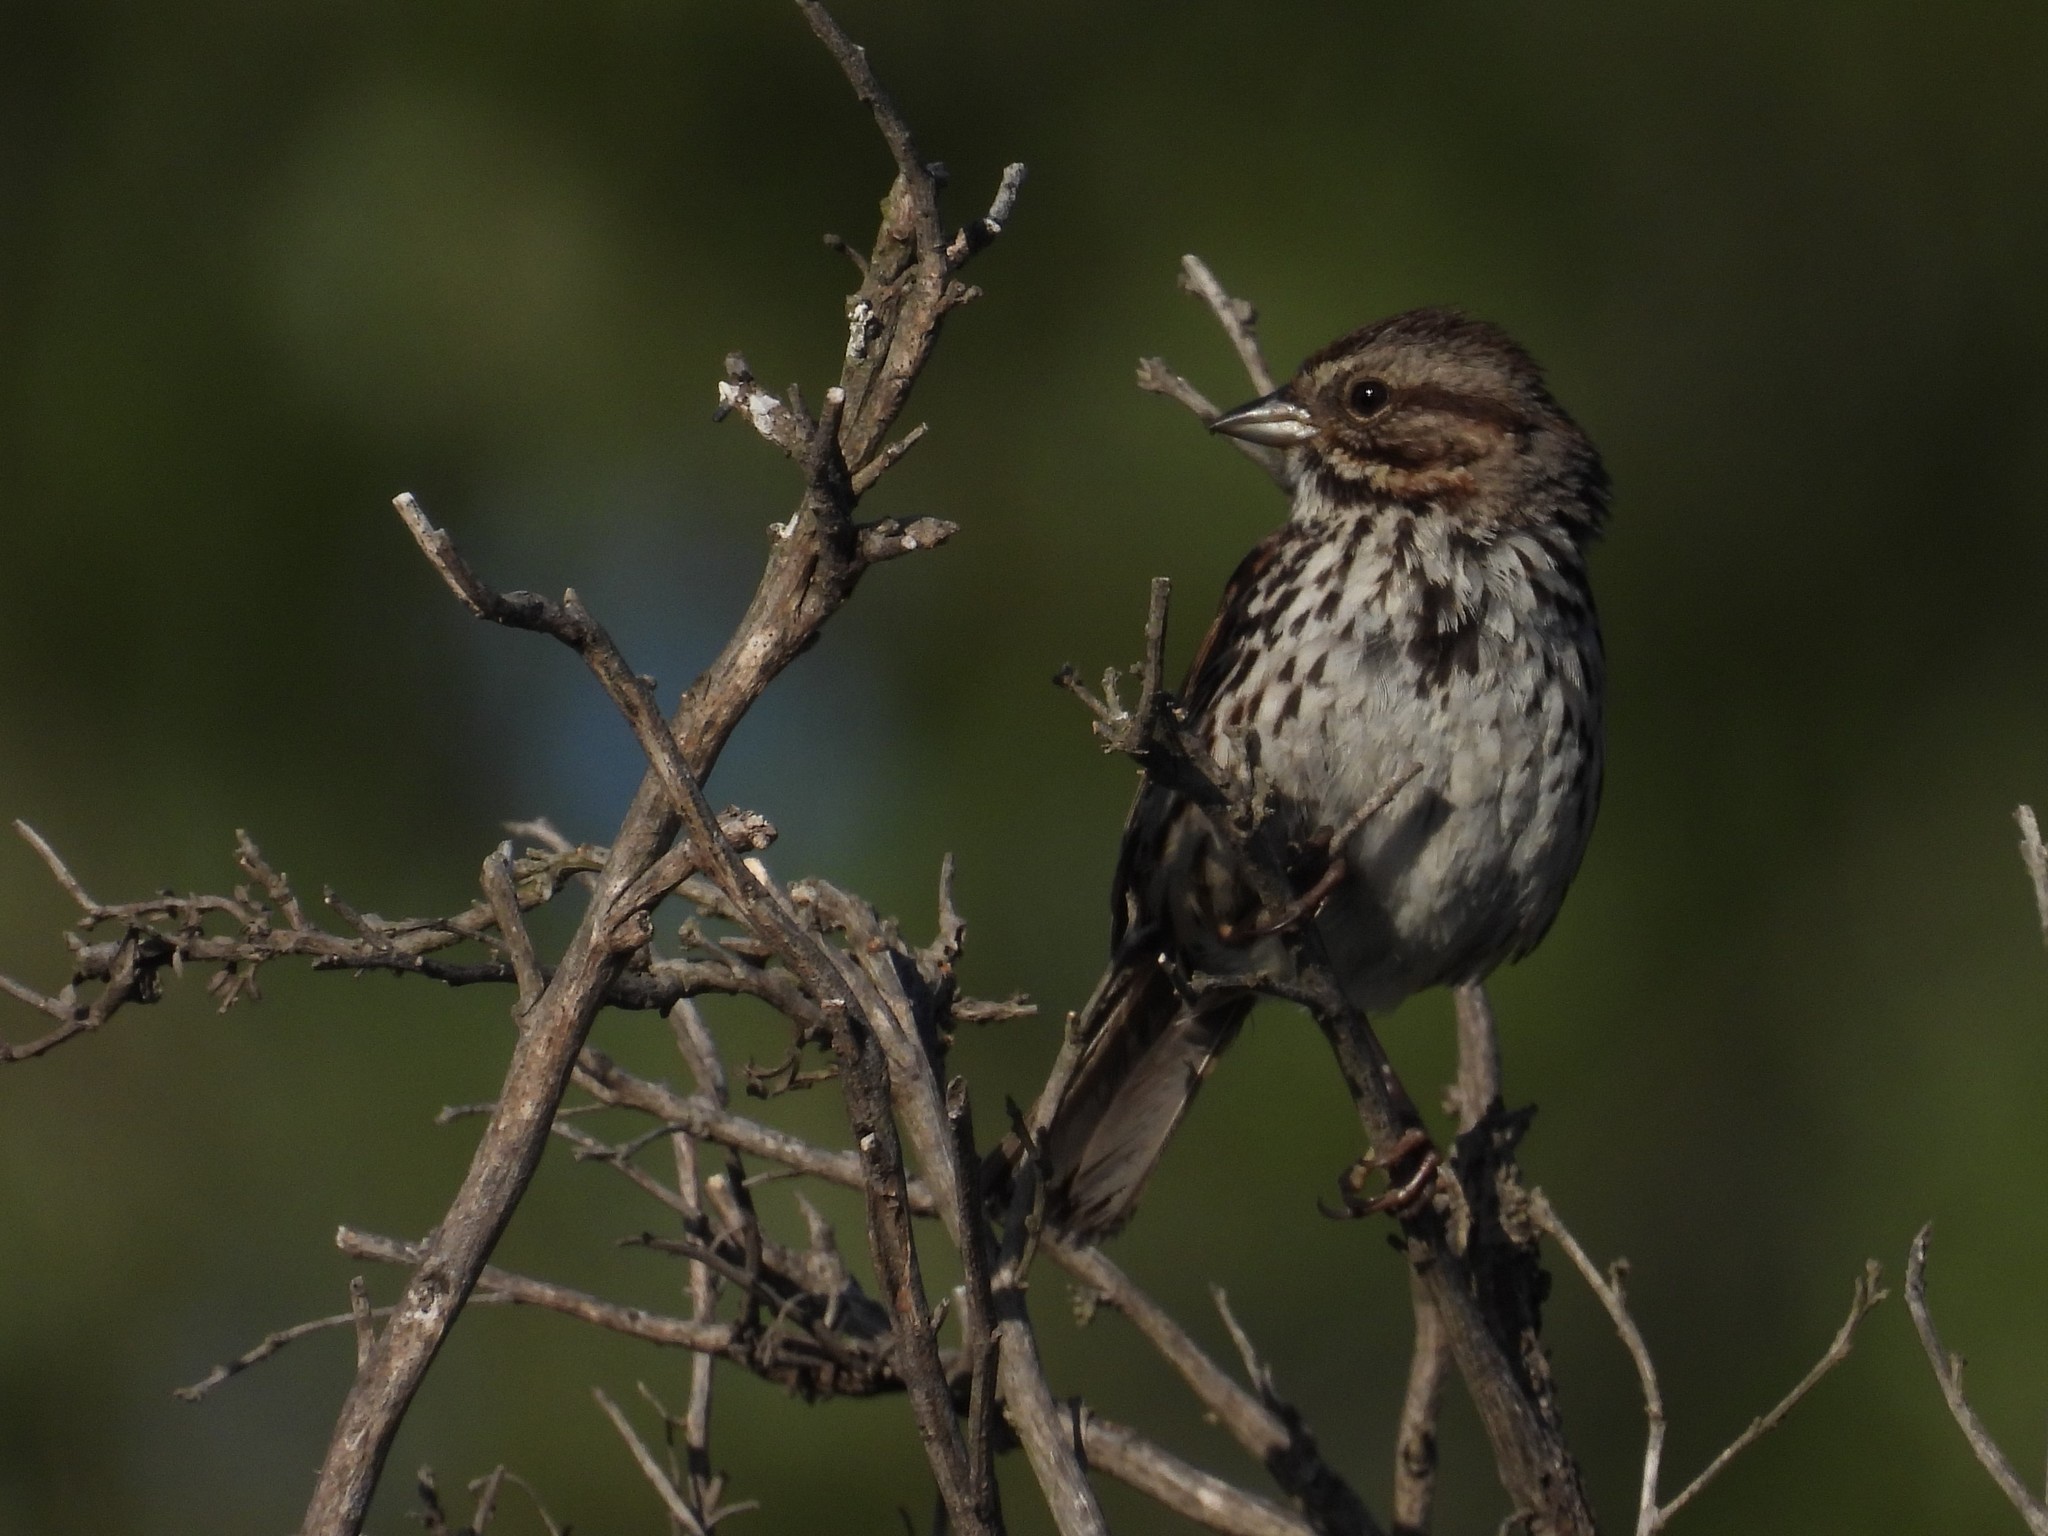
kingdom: Animalia
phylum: Chordata
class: Aves
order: Passeriformes
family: Passerellidae
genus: Melospiza
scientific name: Melospiza melodia
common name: Song sparrow
